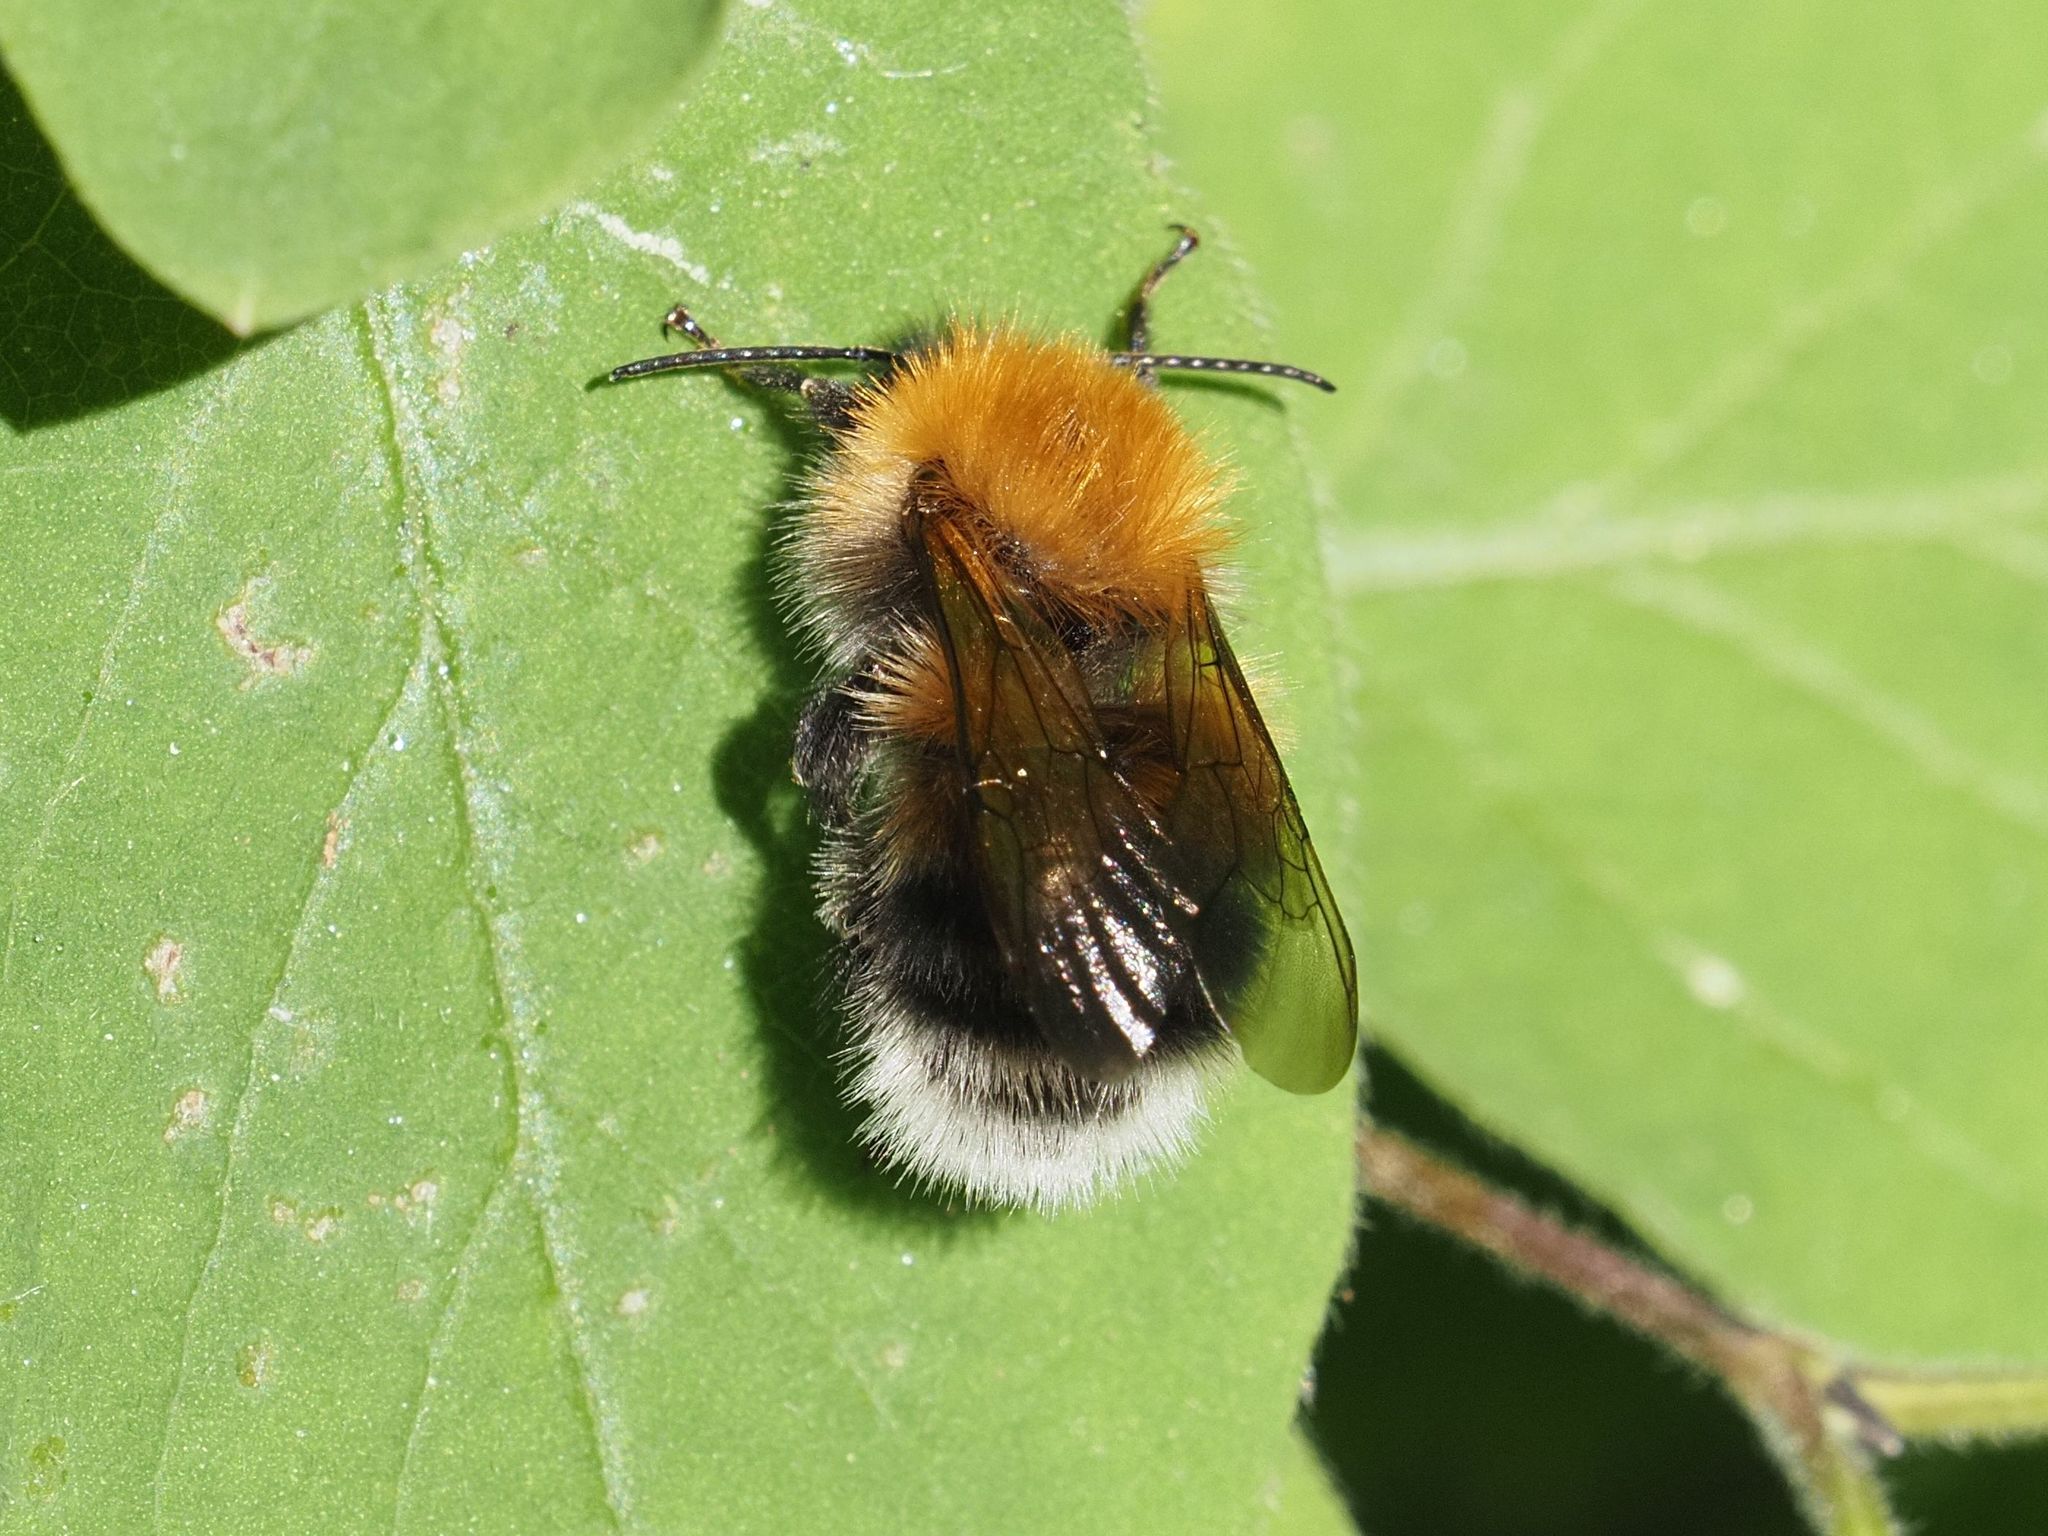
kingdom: Animalia
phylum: Arthropoda
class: Insecta
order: Hymenoptera
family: Apidae
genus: Bombus
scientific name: Bombus hypnorum
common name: New garden bumblebee
